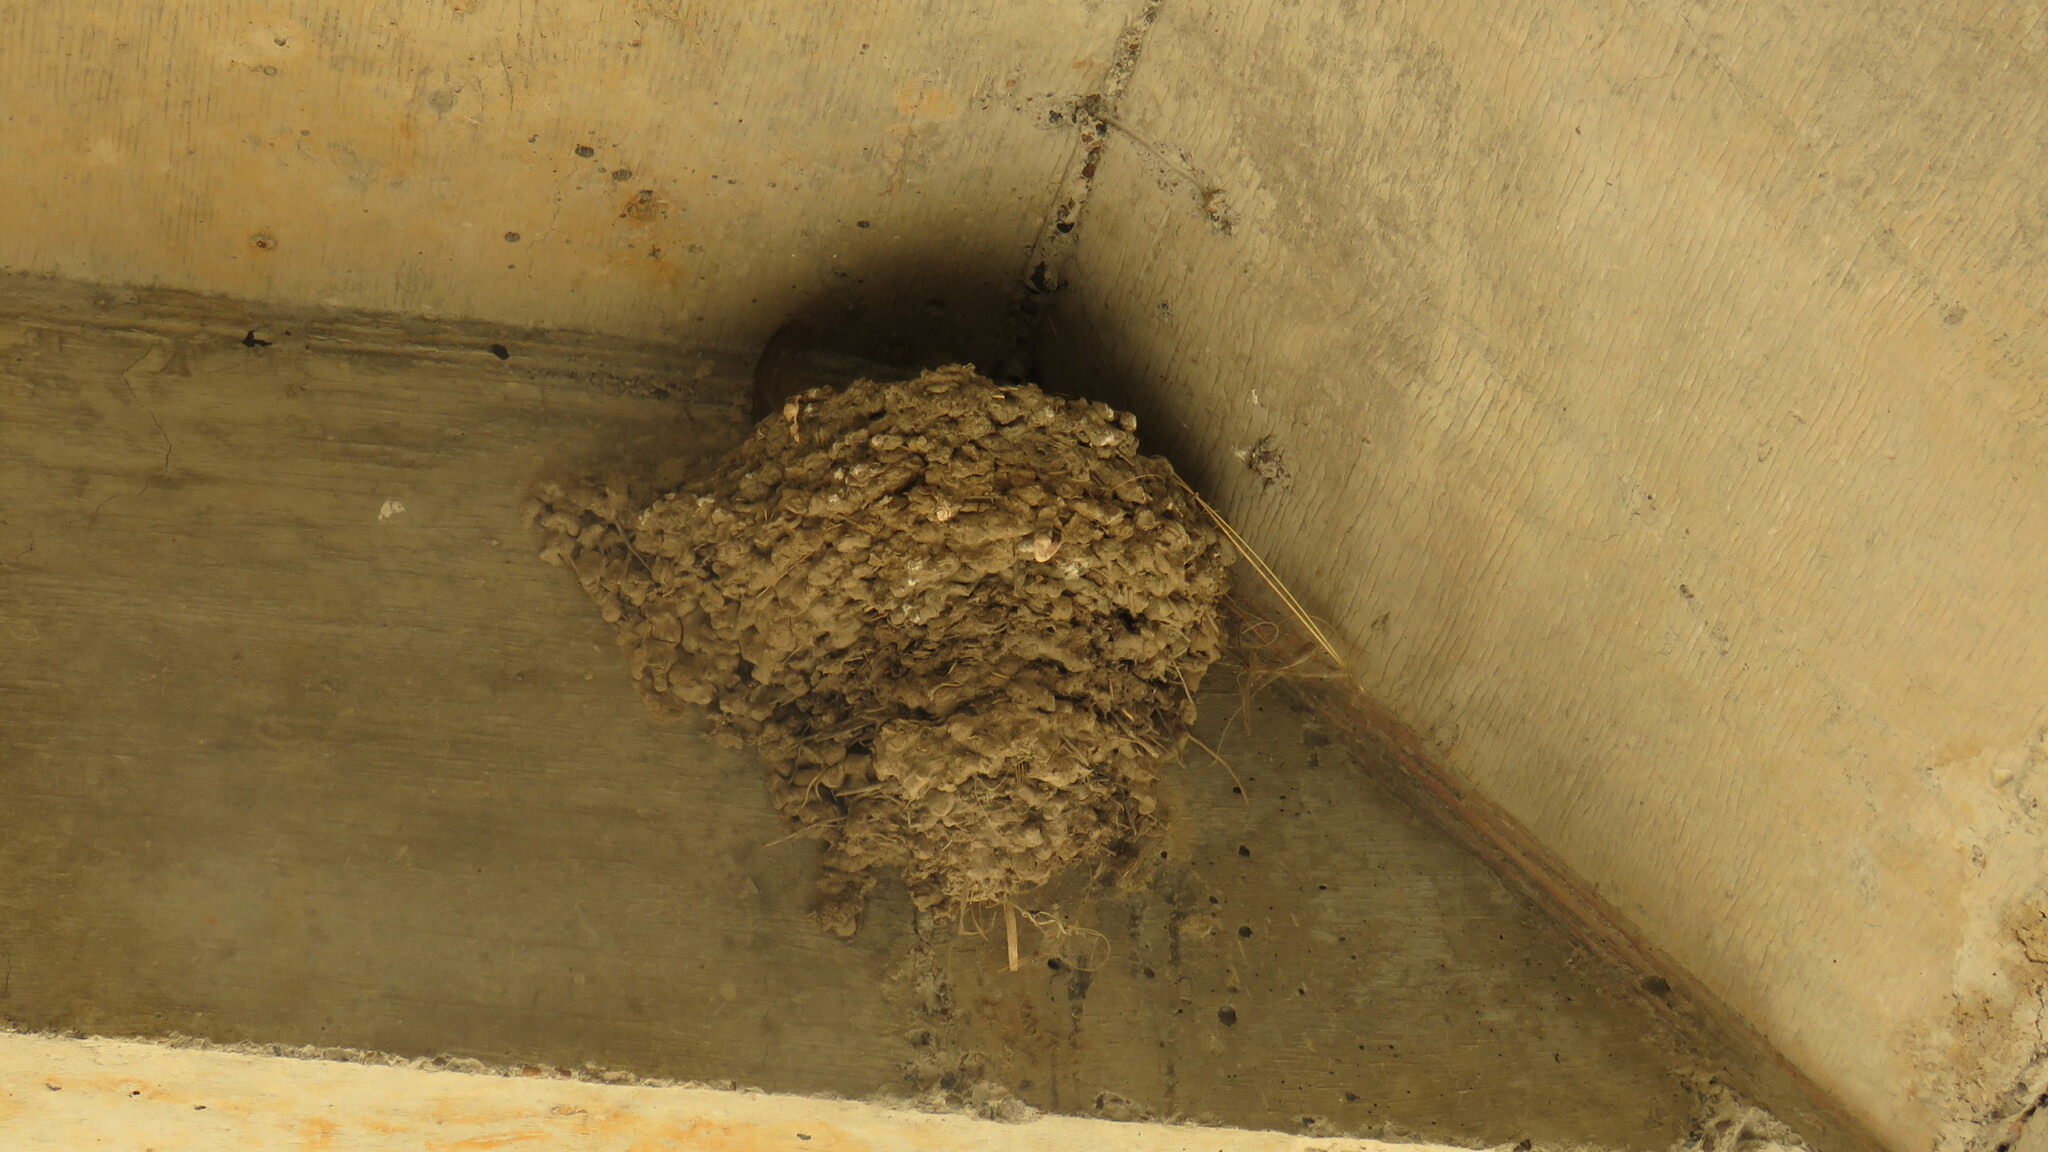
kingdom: Animalia
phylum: Chordata
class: Aves
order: Passeriformes
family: Hirundinidae
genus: Hirundo
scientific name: Hirundo rustica
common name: Barn swallow
